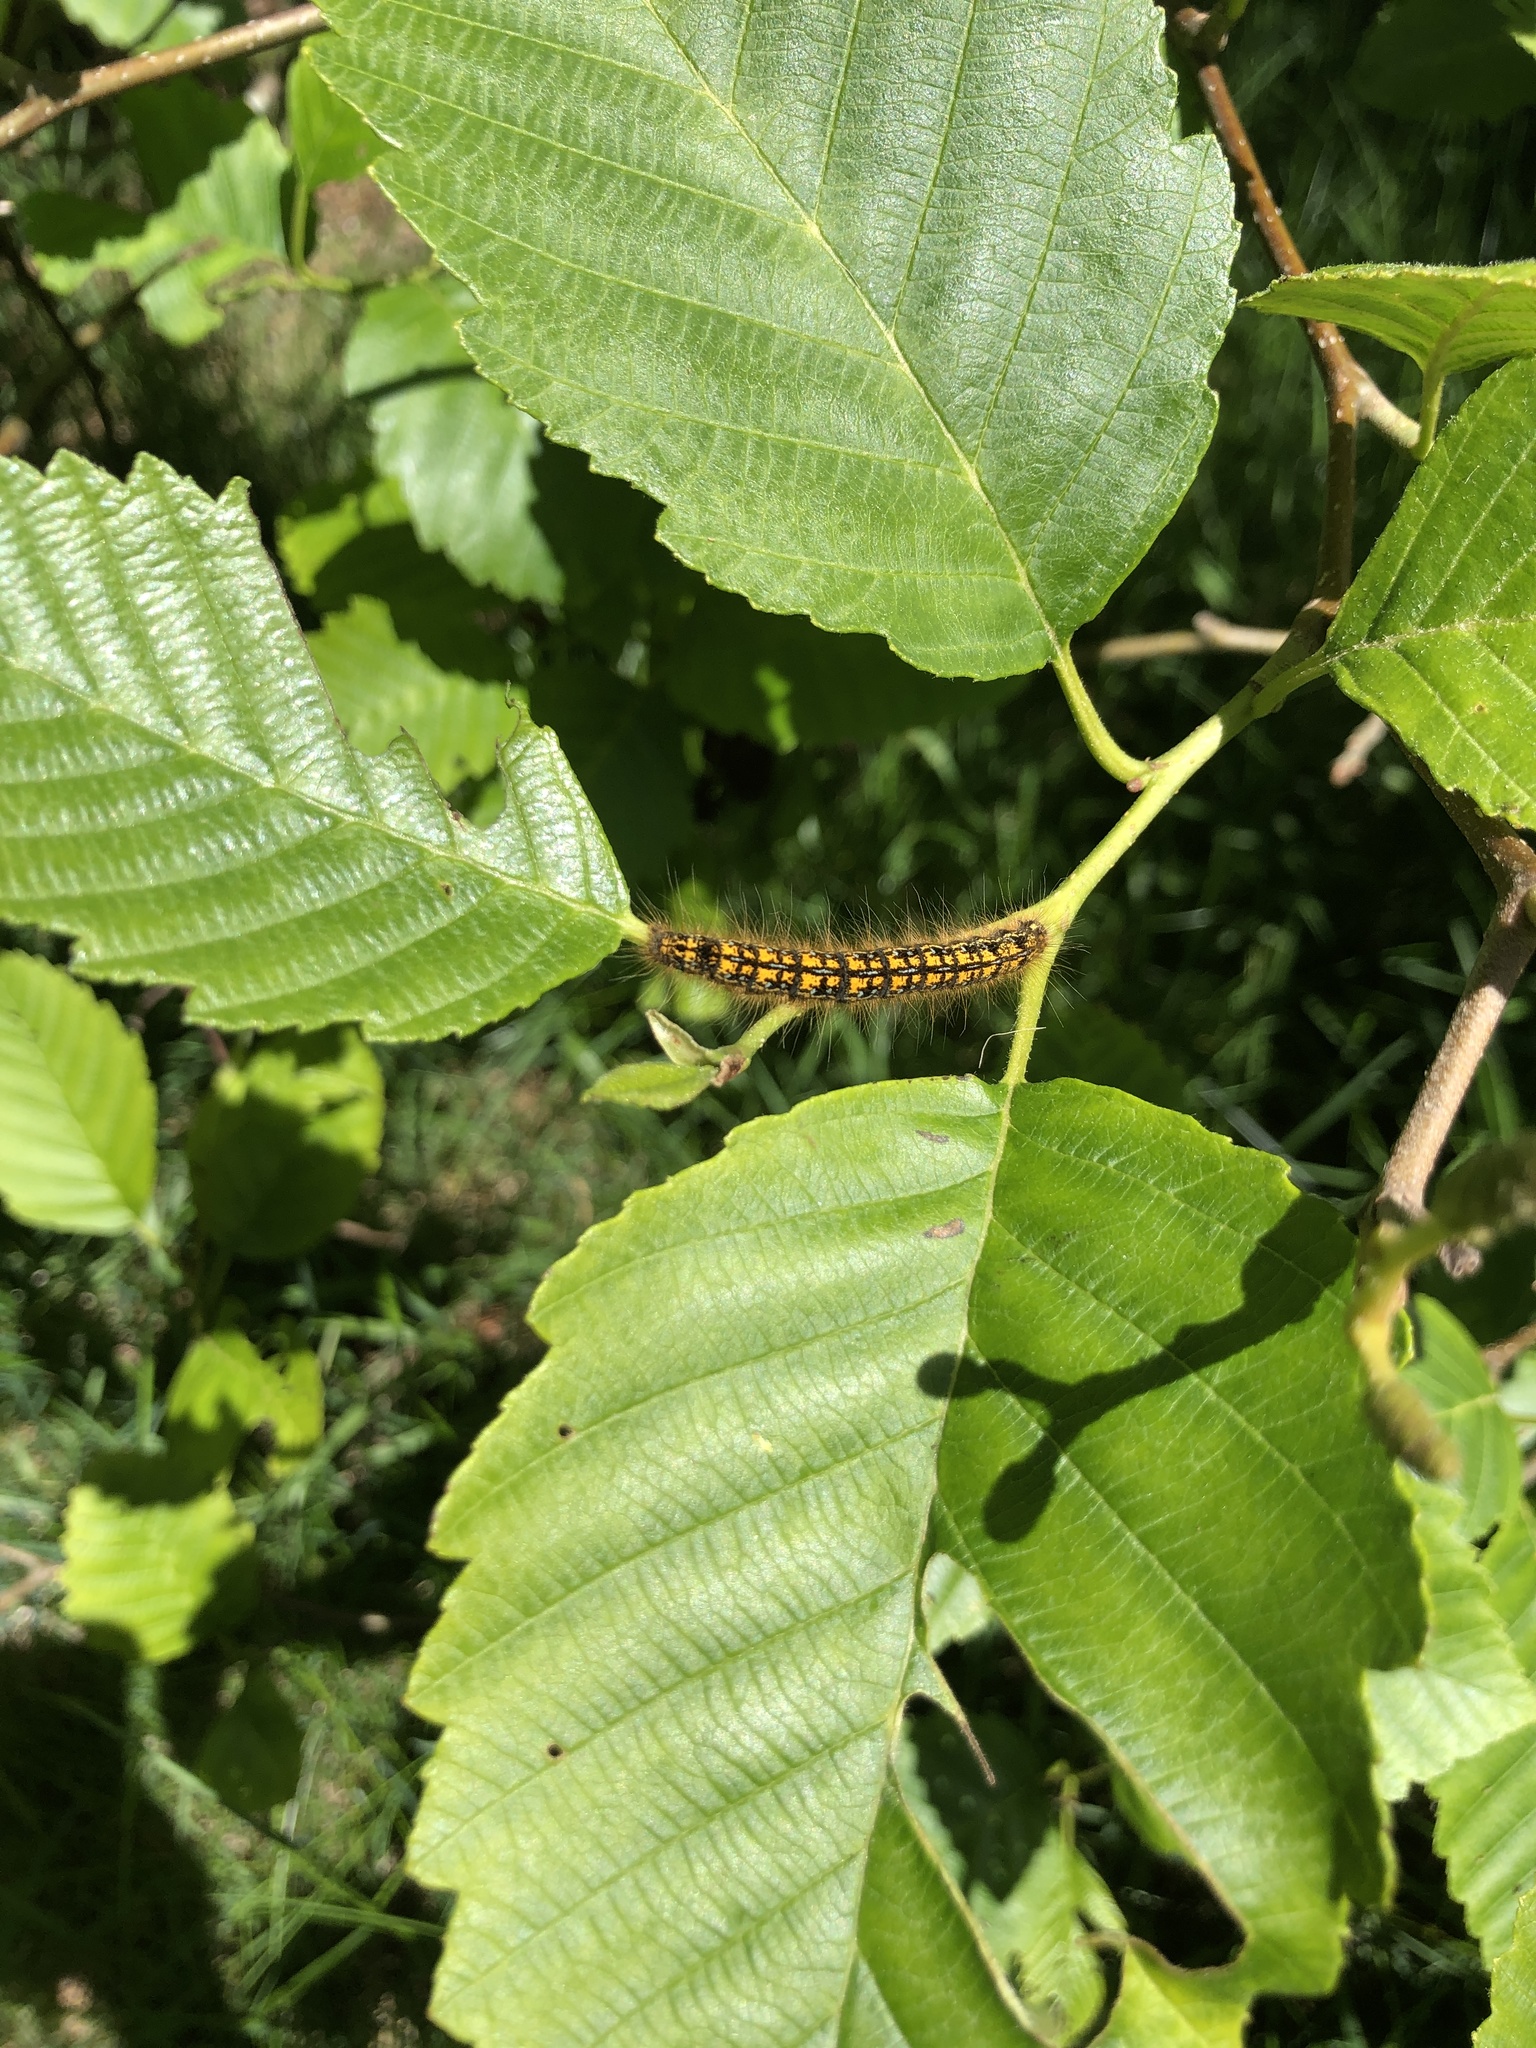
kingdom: Animalia
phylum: Arthropoda
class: Insecta
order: Lepidoptera
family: Lasiocampidae
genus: Malacosoma
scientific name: Malacosoma californica
